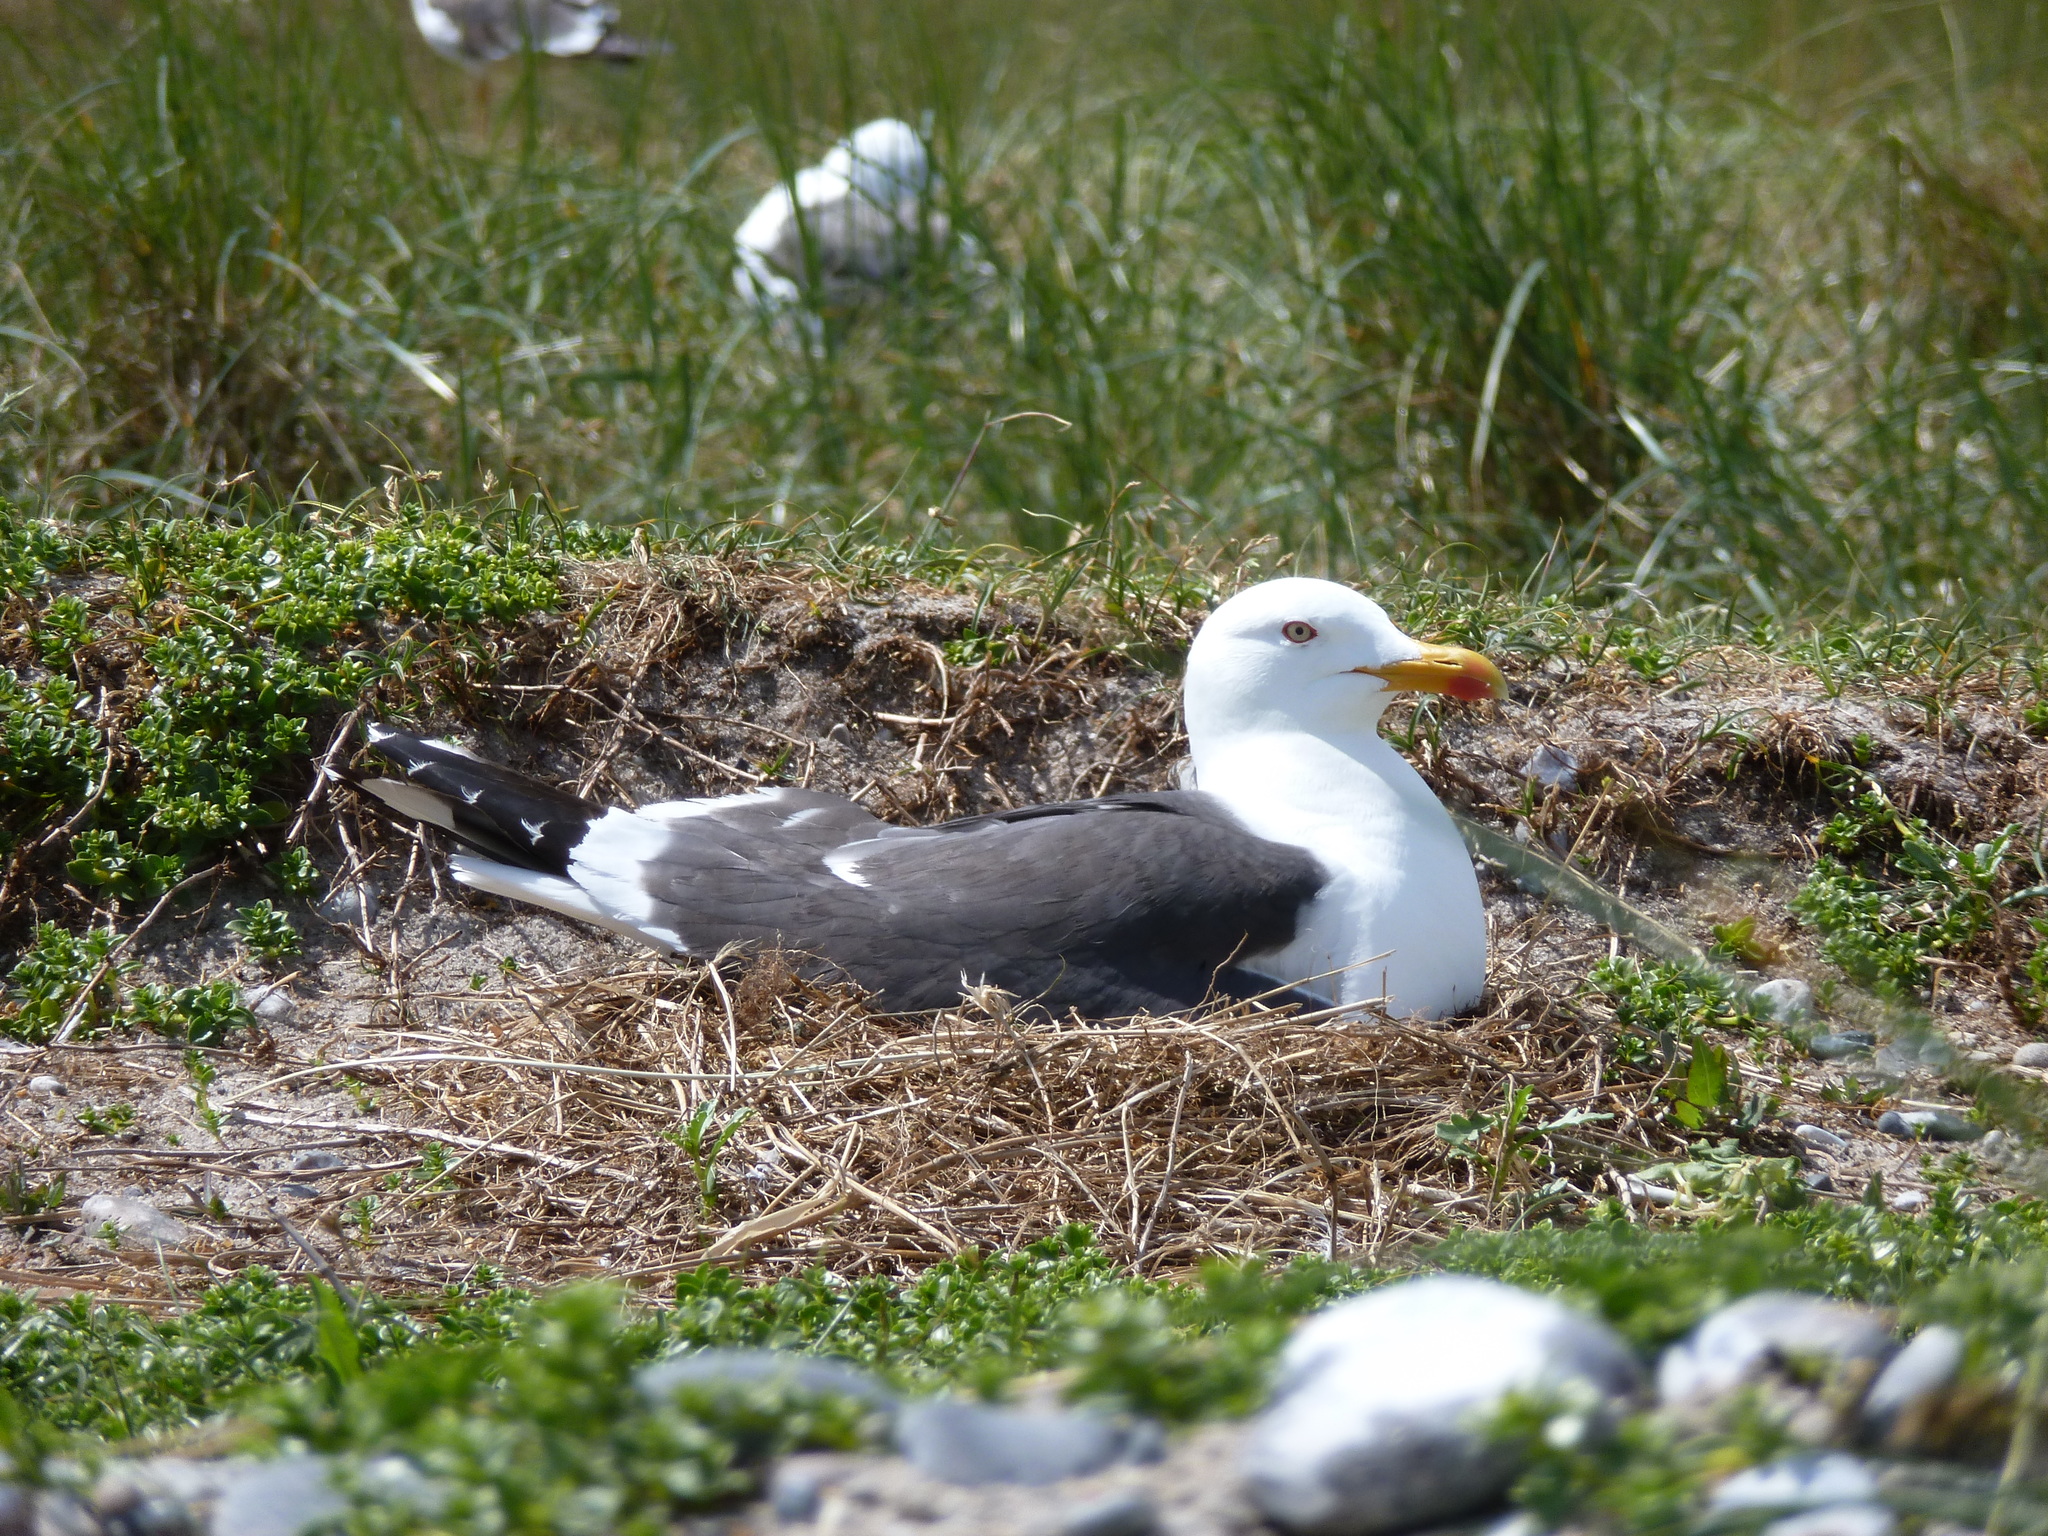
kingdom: Animalia
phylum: Chordata
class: Aves
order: Charadriiformes
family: Laridae
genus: Larus
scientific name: Larus fuscus
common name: Lesser black-backed gull
